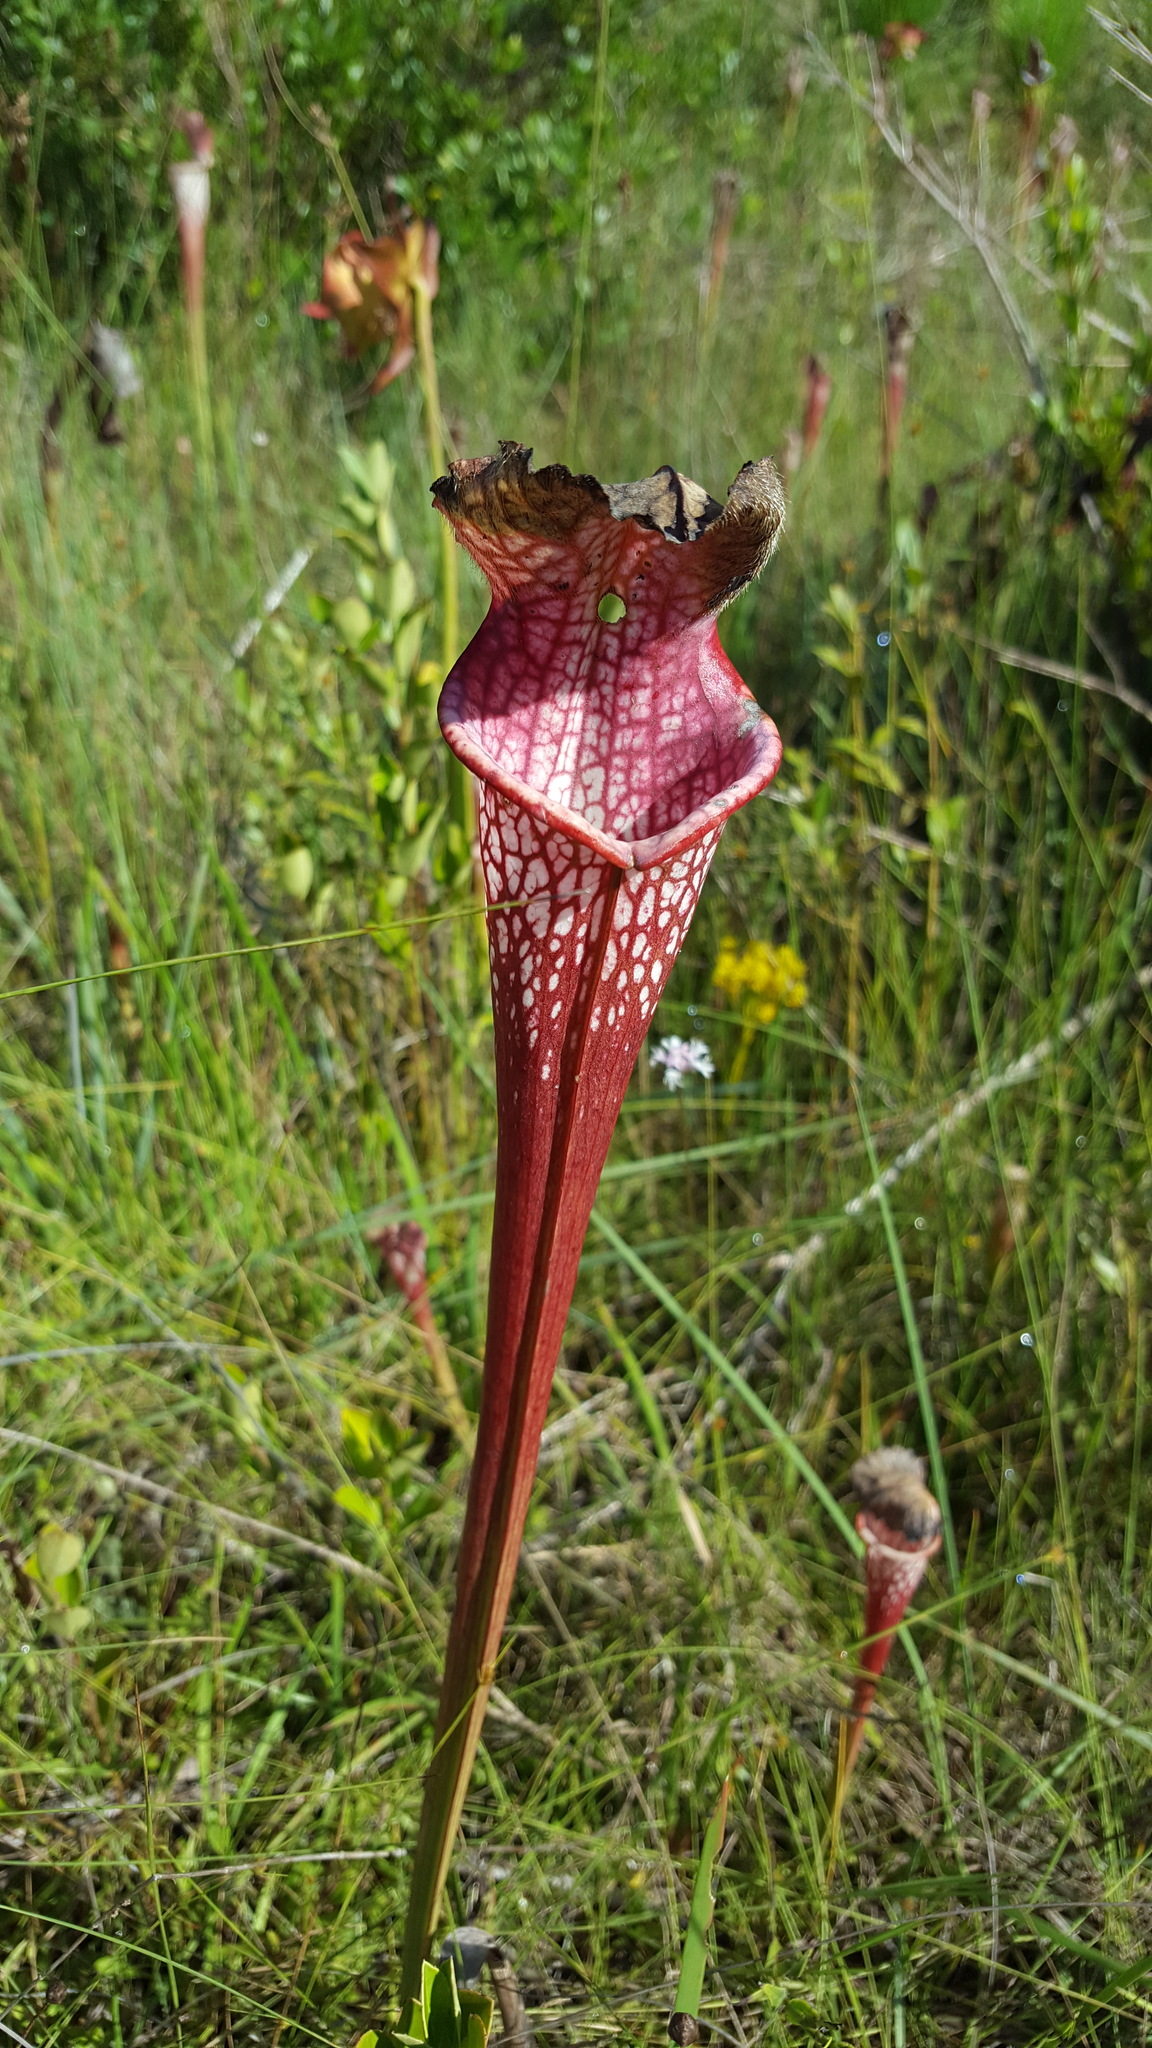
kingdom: Plantae
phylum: Tracheophyta
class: Magnoliopsida
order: Ericales
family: Sarraceniaceae
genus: Sarracenia
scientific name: Sarracenia leucophylla
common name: Purple trumpetleaf
